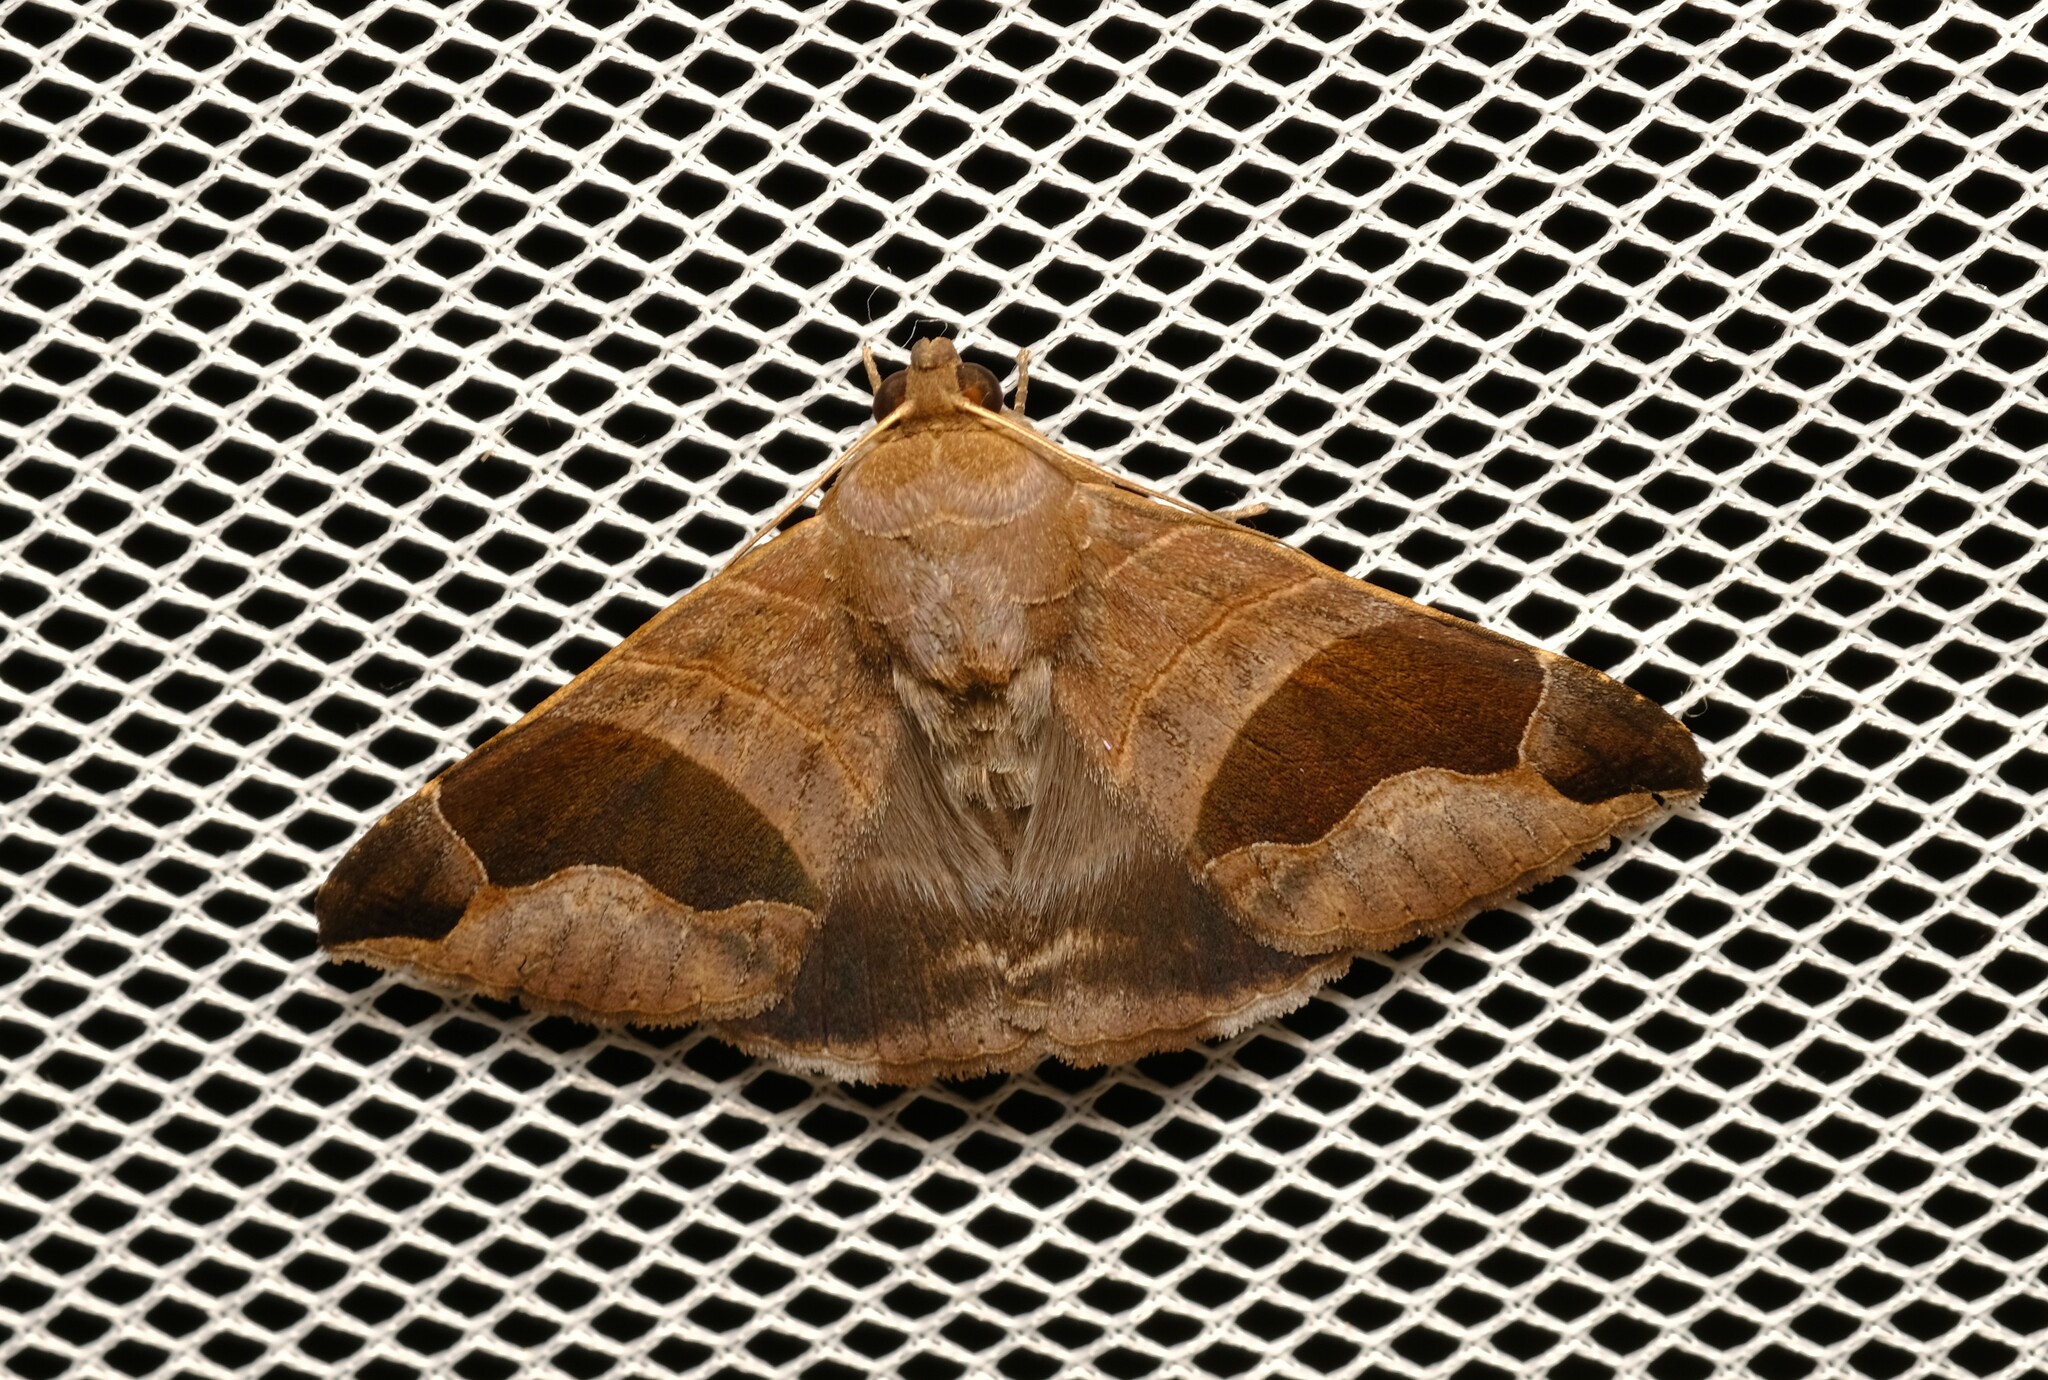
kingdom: Animalia
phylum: Arthropoda
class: Insecta
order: Lepidoptera
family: Erebidae
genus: Bastilla
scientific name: Bastilla solomonensis
